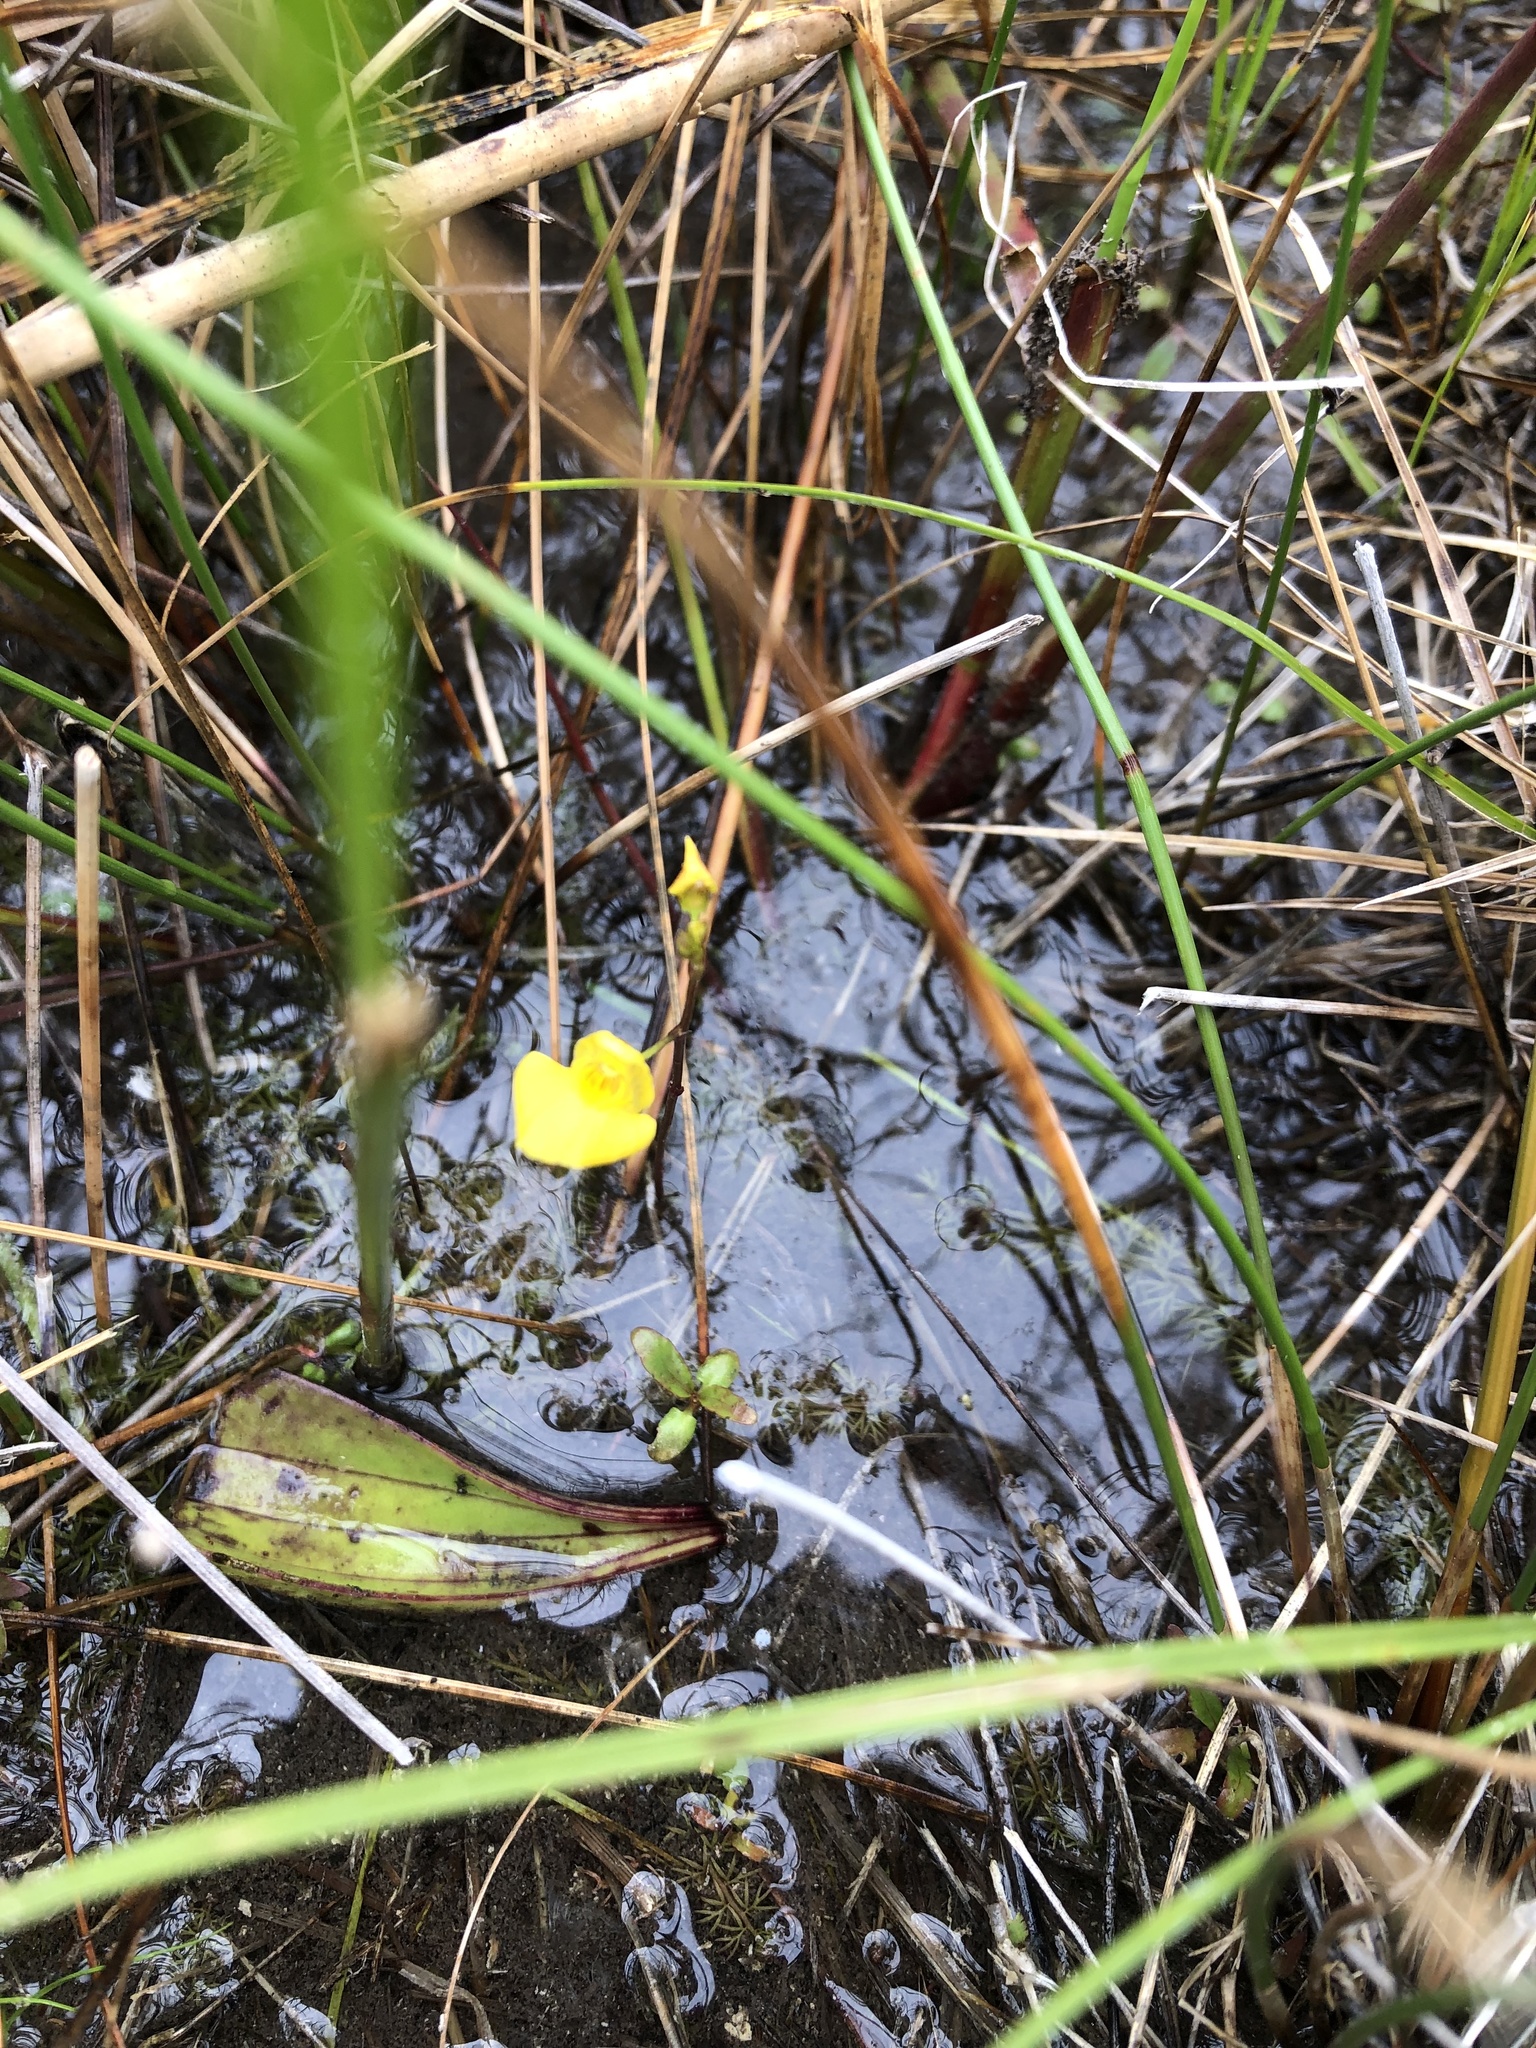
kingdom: Plantae
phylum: Tracheophyta
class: Magnoliopsida
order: Lamiales
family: Lentibulariaceae
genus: Utricularia
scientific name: Utricularia ochroleuca
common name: Pale bladderwort
